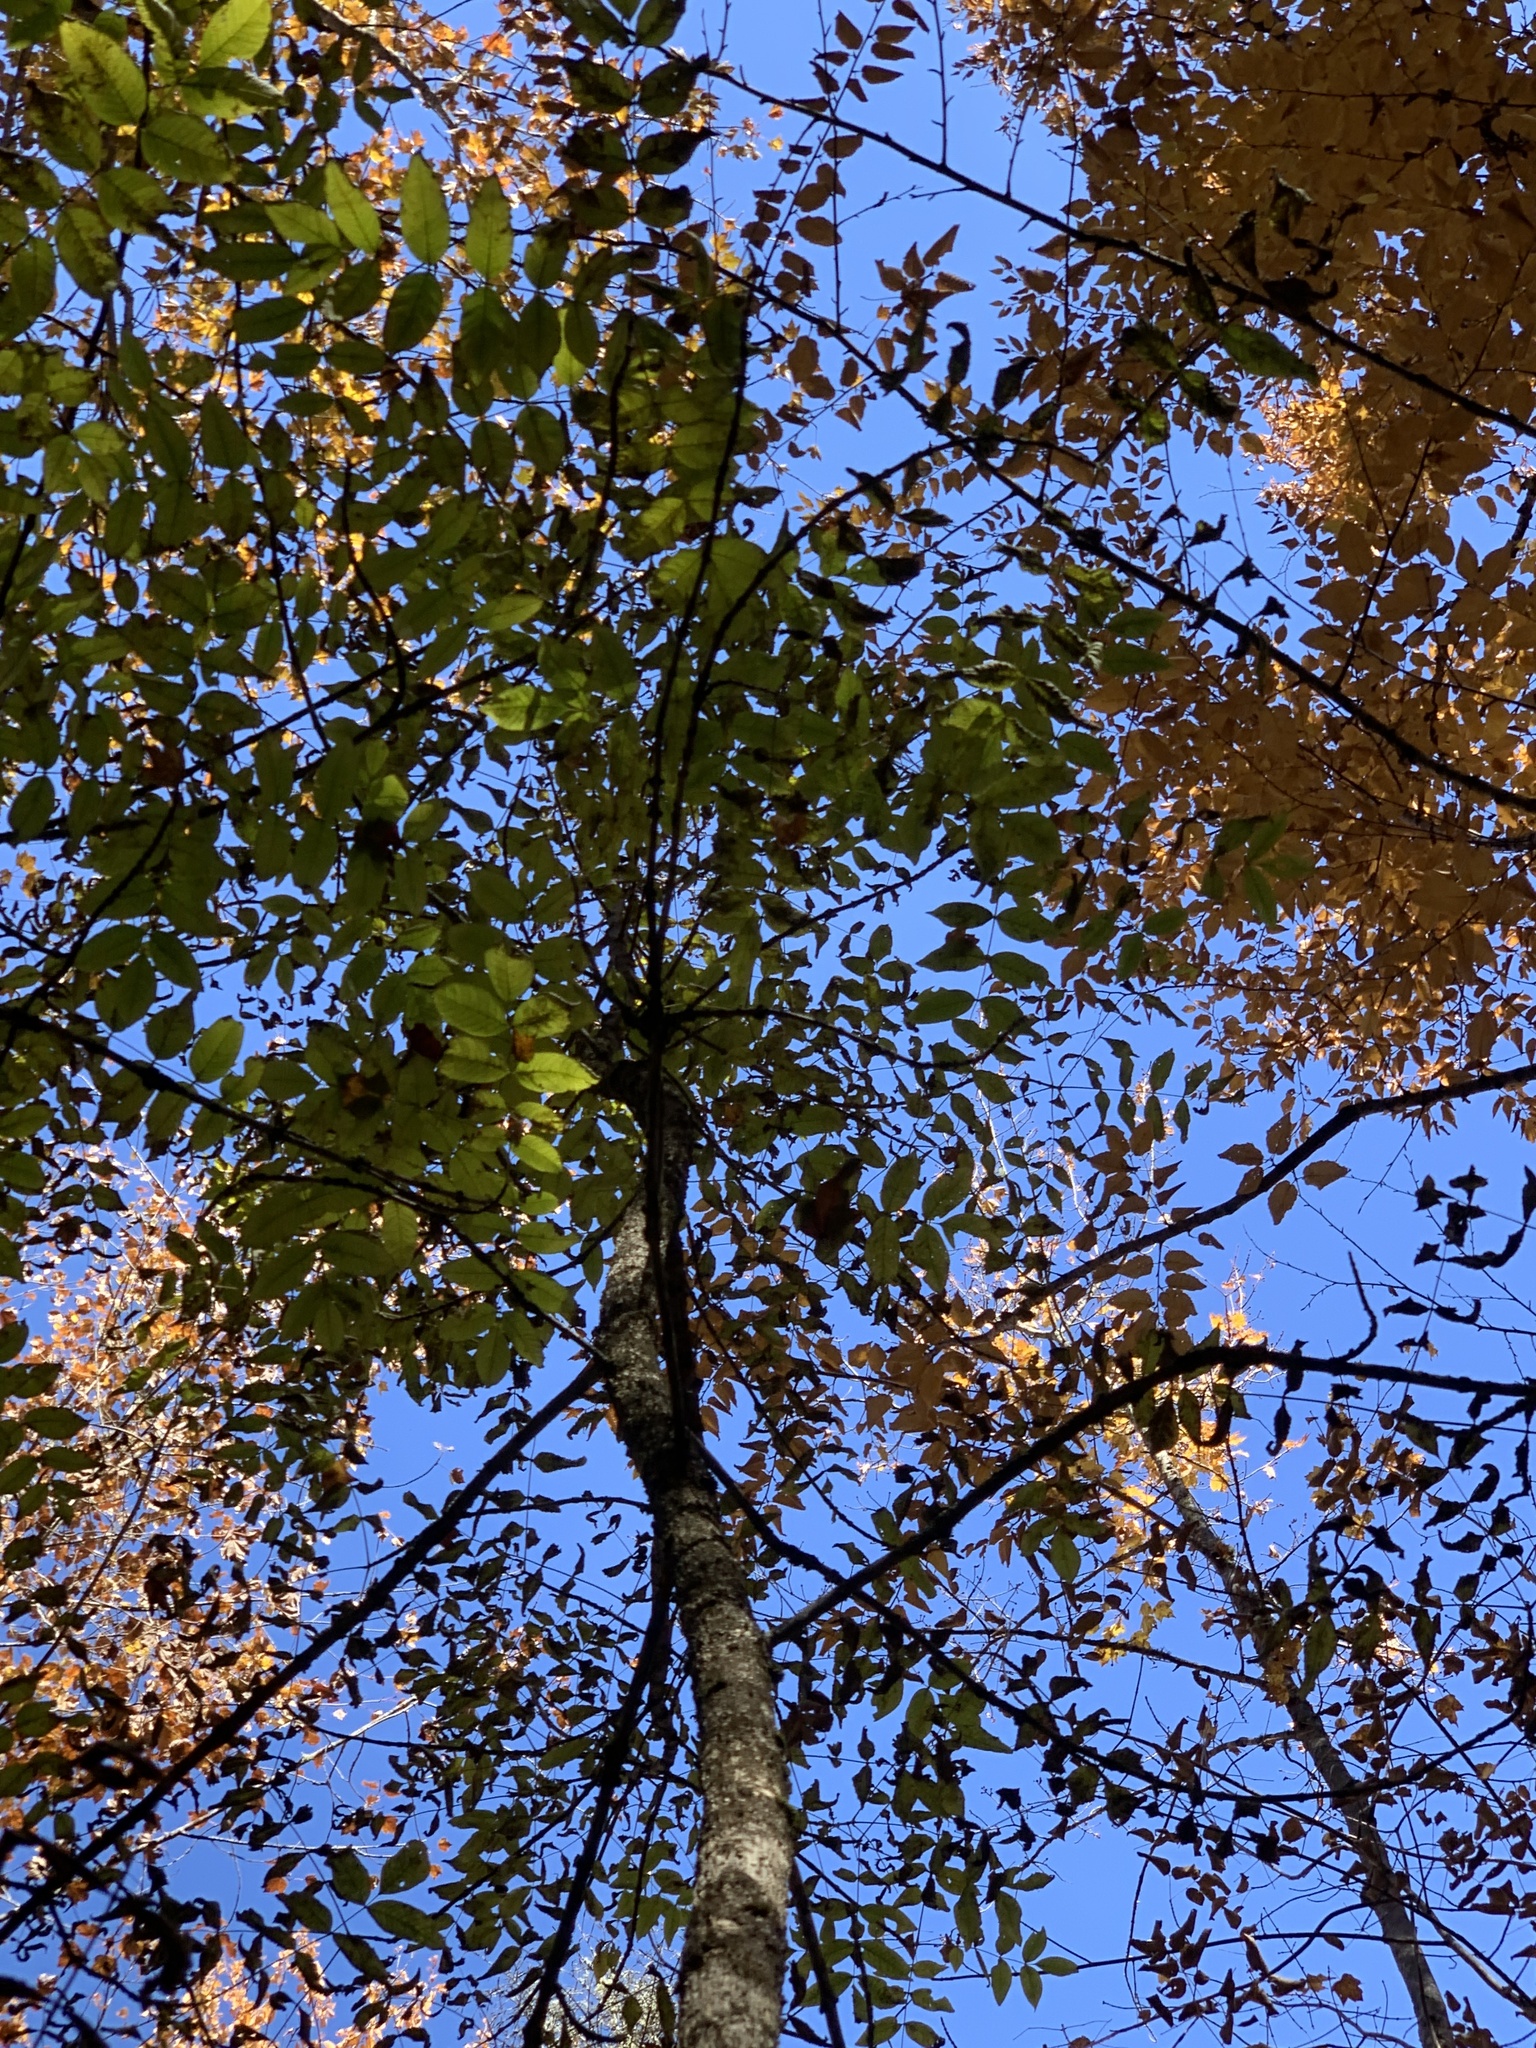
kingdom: Plantae
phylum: Tracheophyta
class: Magnoliopsida
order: Lamiales
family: Oleaceae
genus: Fraxinus
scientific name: Fraxinus nigra
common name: Black ash
